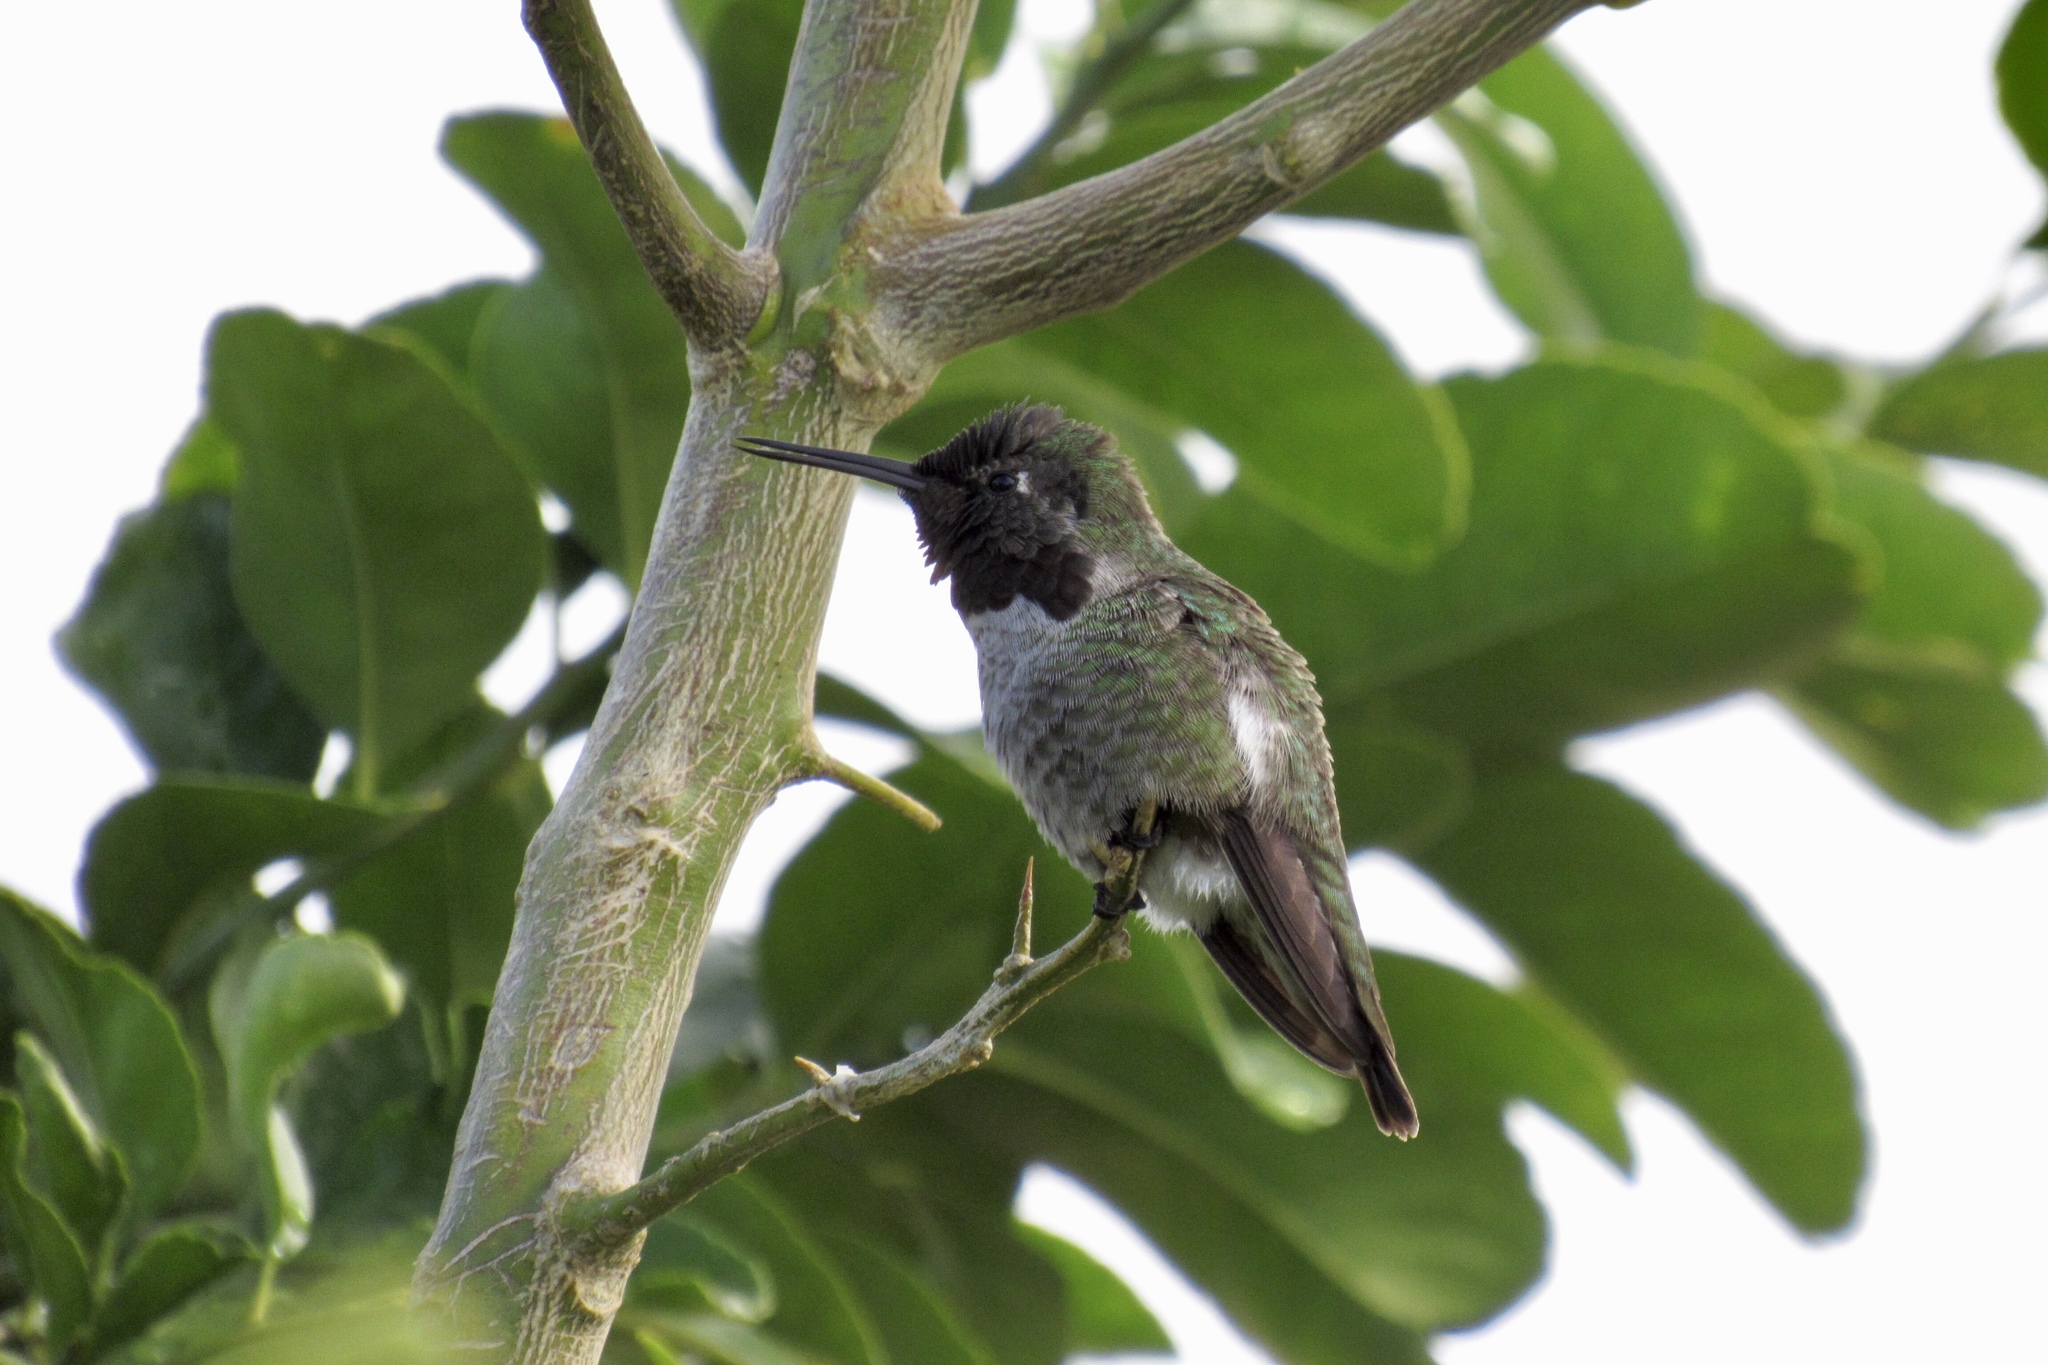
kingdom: Animalia
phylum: Chordata
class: Aves
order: Apodiformes
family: Trochilidae
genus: Calypte
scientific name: Calypte anna
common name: Anna's hummingbird
